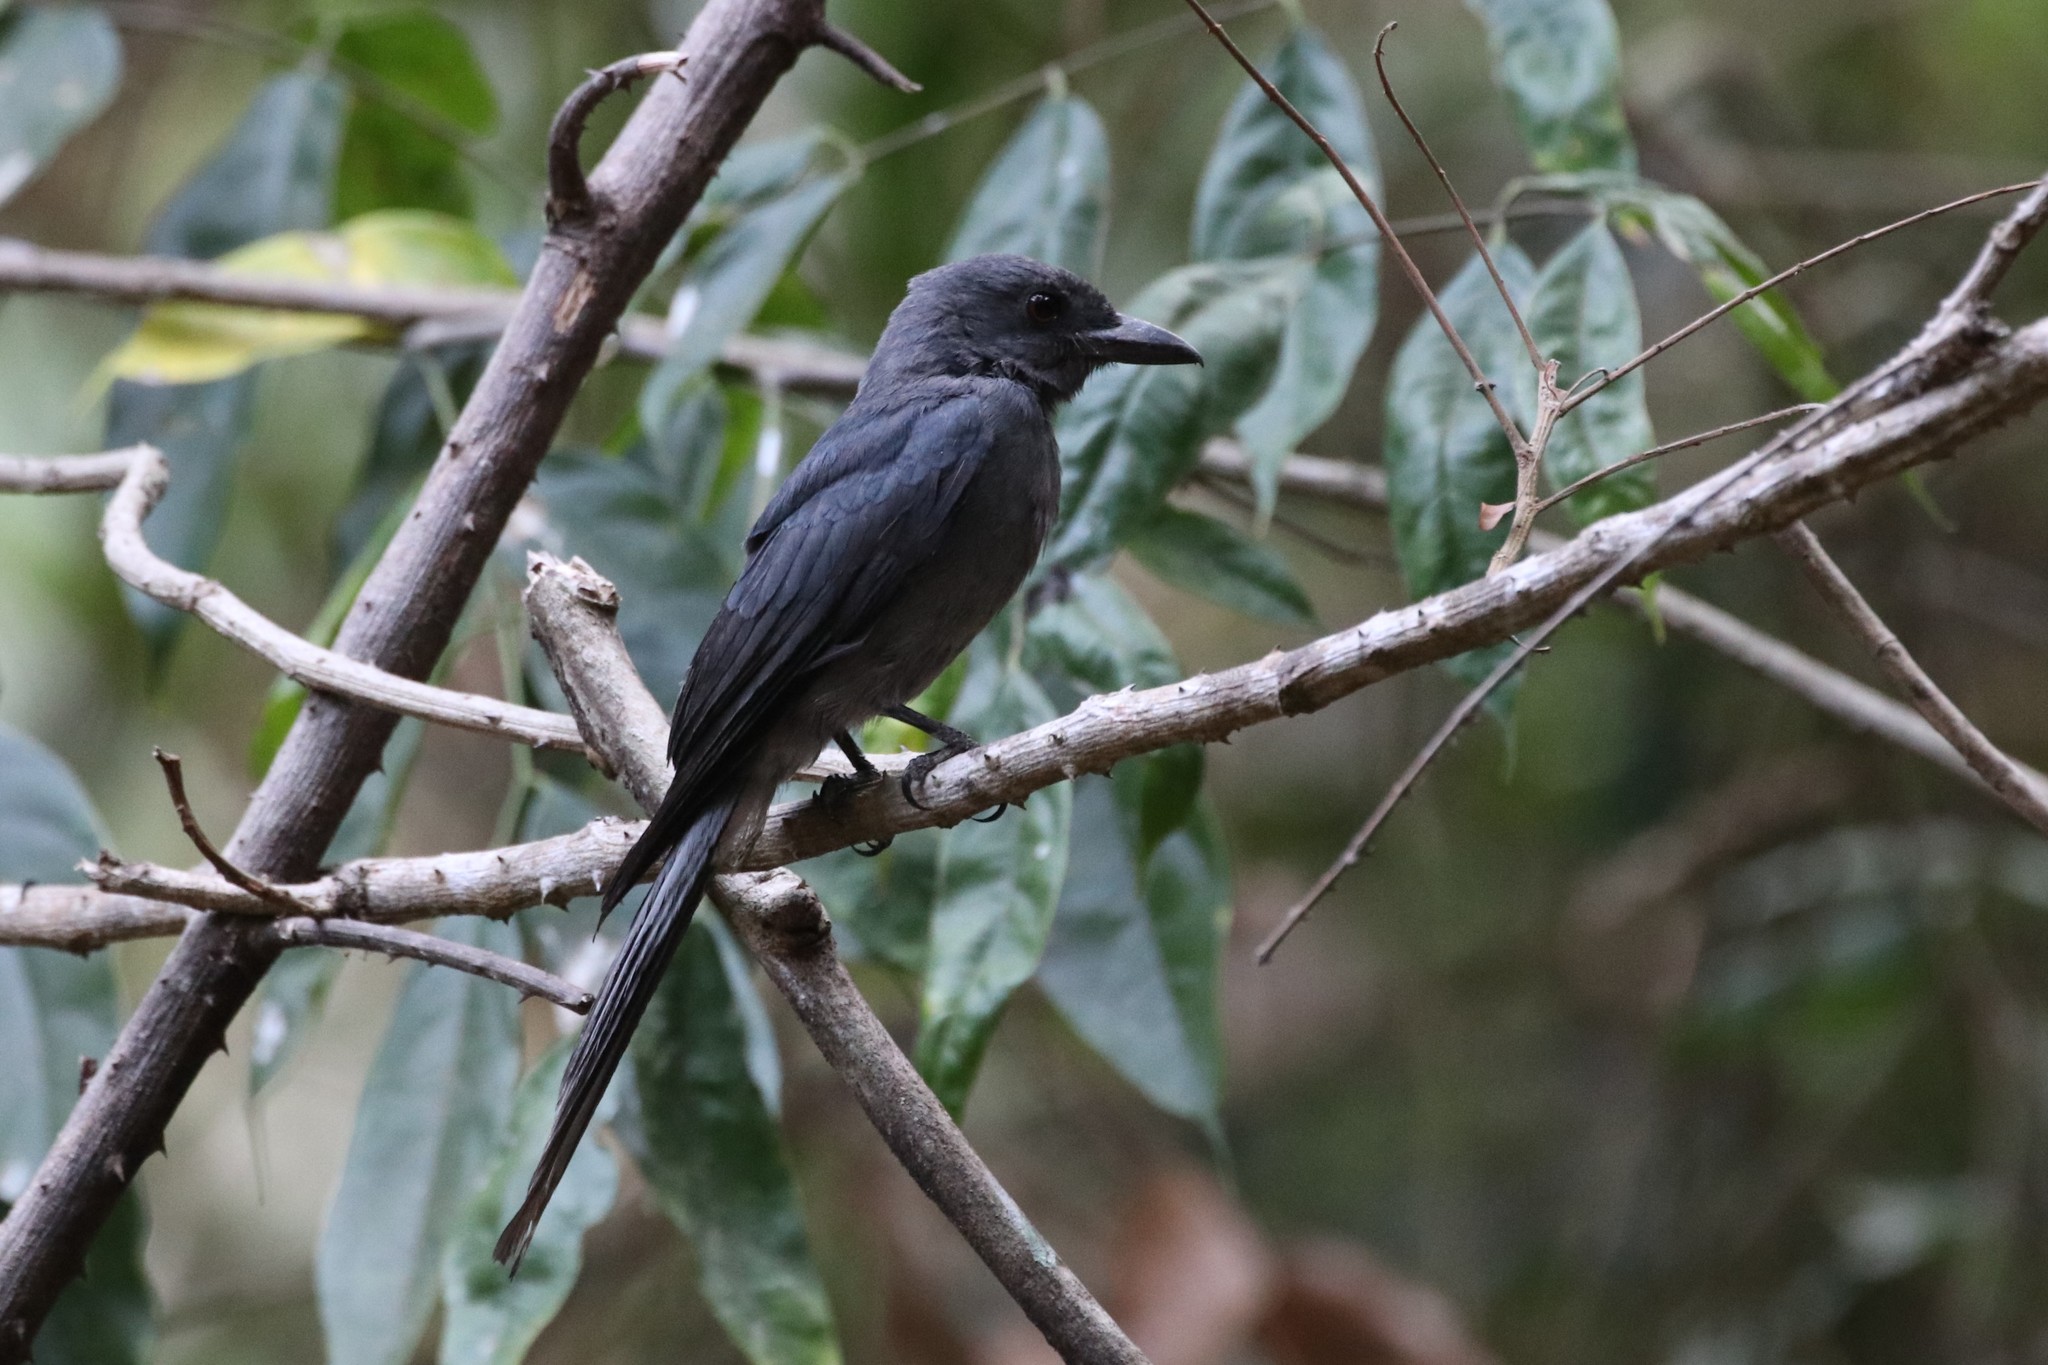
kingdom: Animalia
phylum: Chordata
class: Aves
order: Passeriformes
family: Dicruridae
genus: Dicrurus
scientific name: Dicrurus leucophaeus
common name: Ashy drongo
